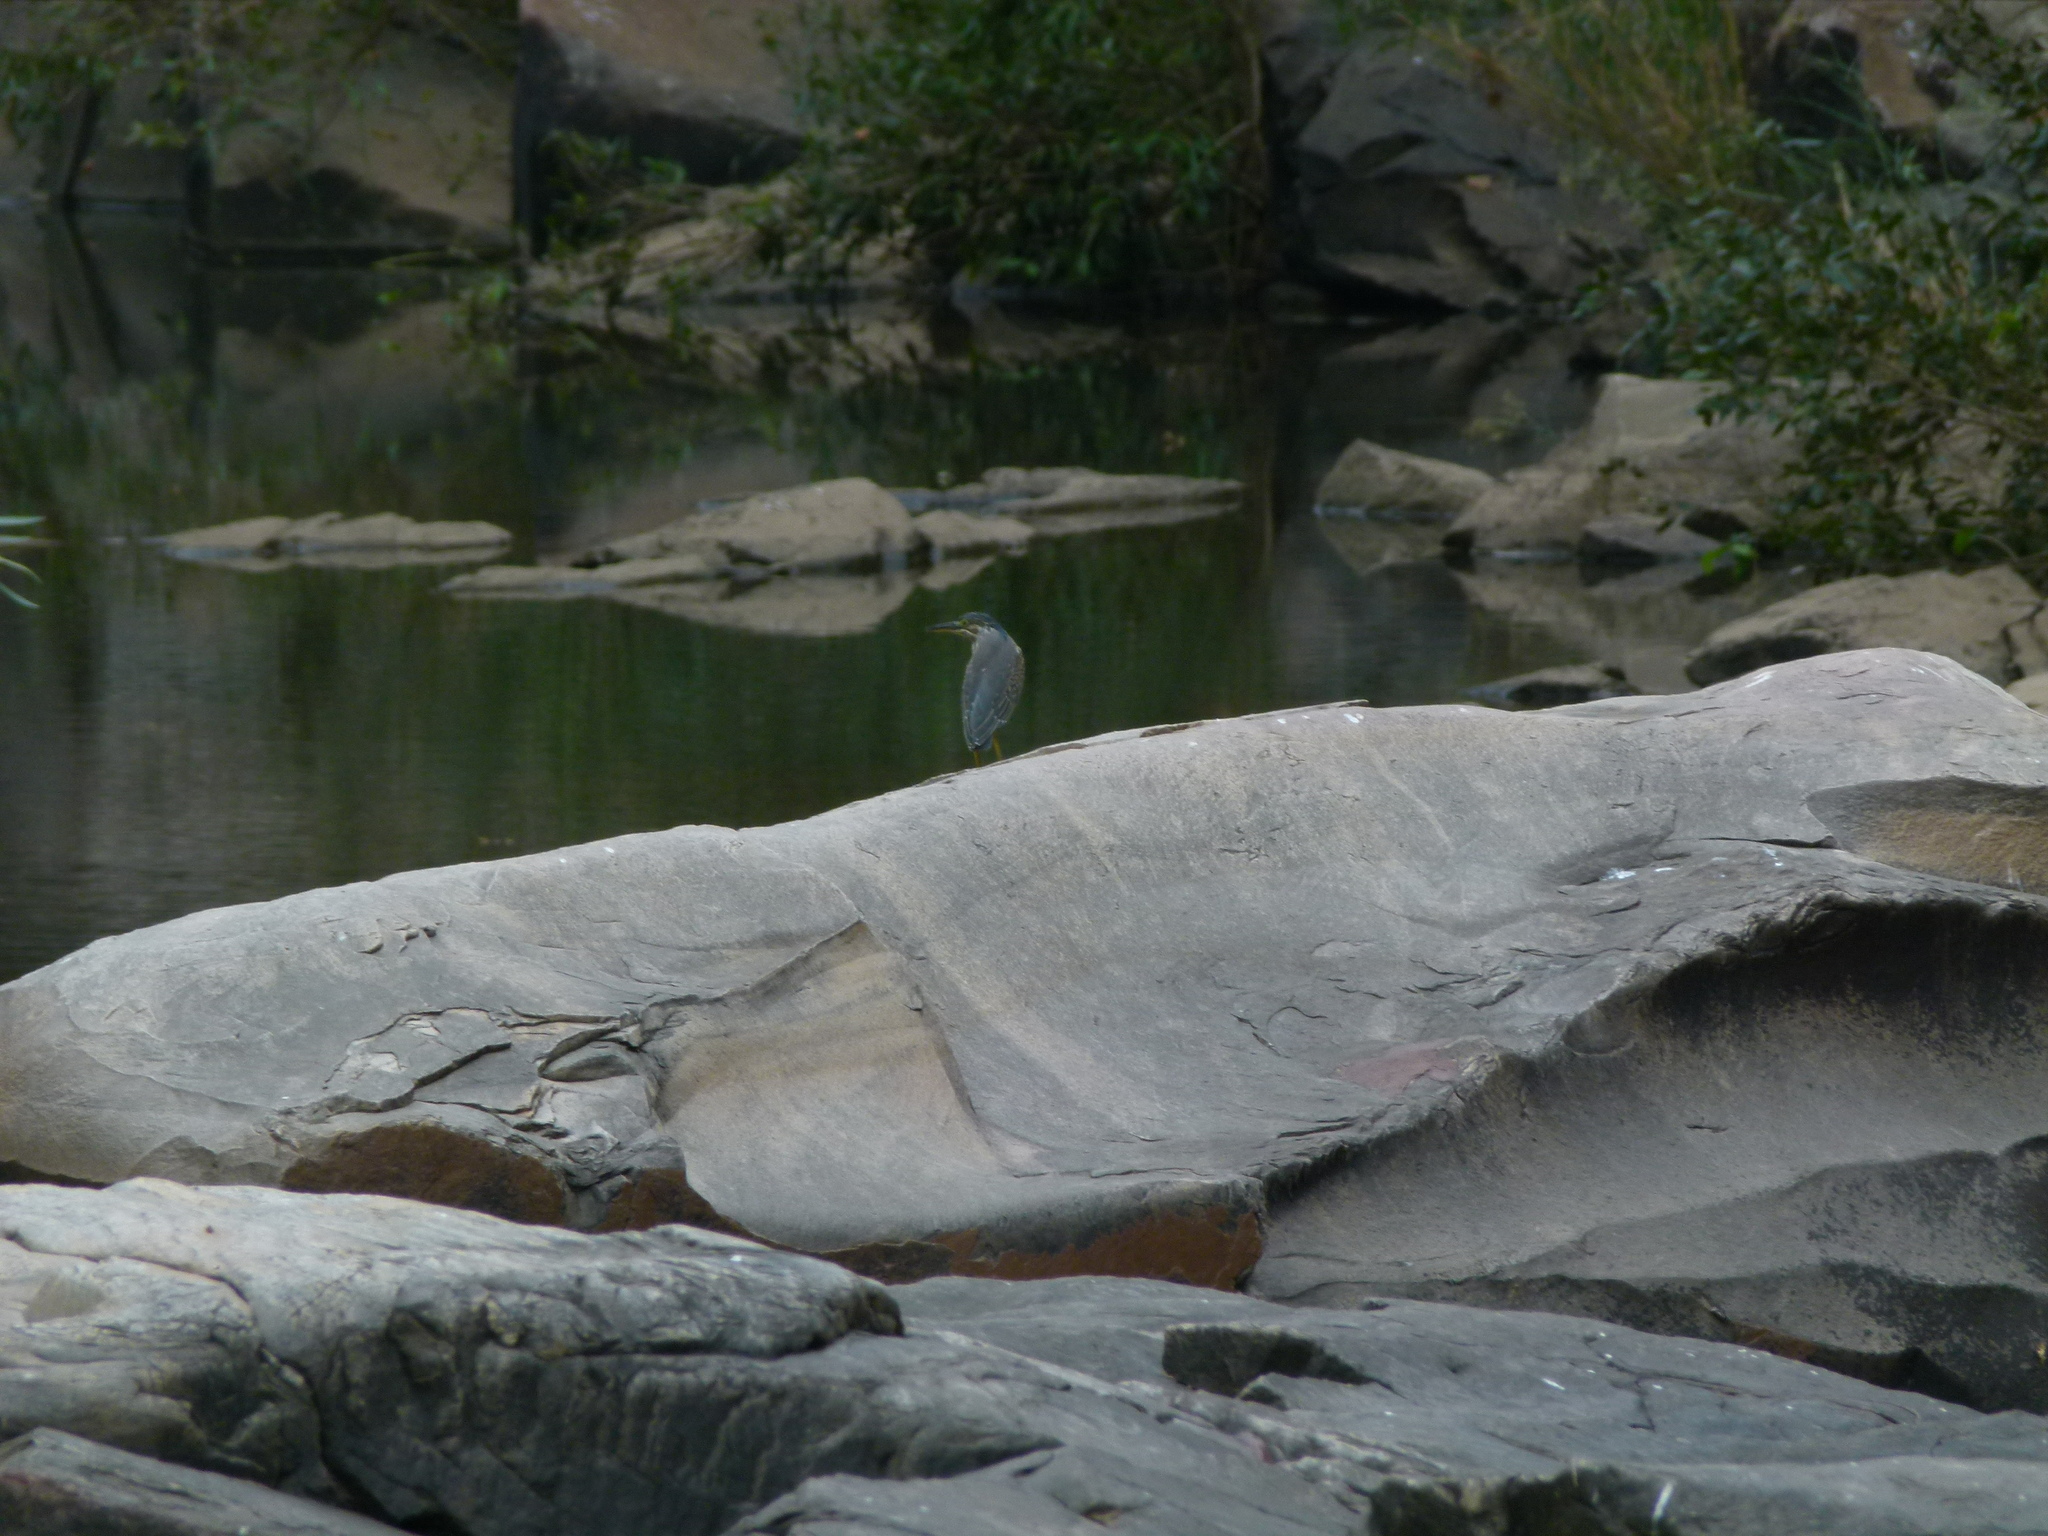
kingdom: Animalia
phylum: Chordata
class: Aves
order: Pelecaniformes
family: Ardeidae
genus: Butorides
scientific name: Butorides striata
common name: Striated heron
